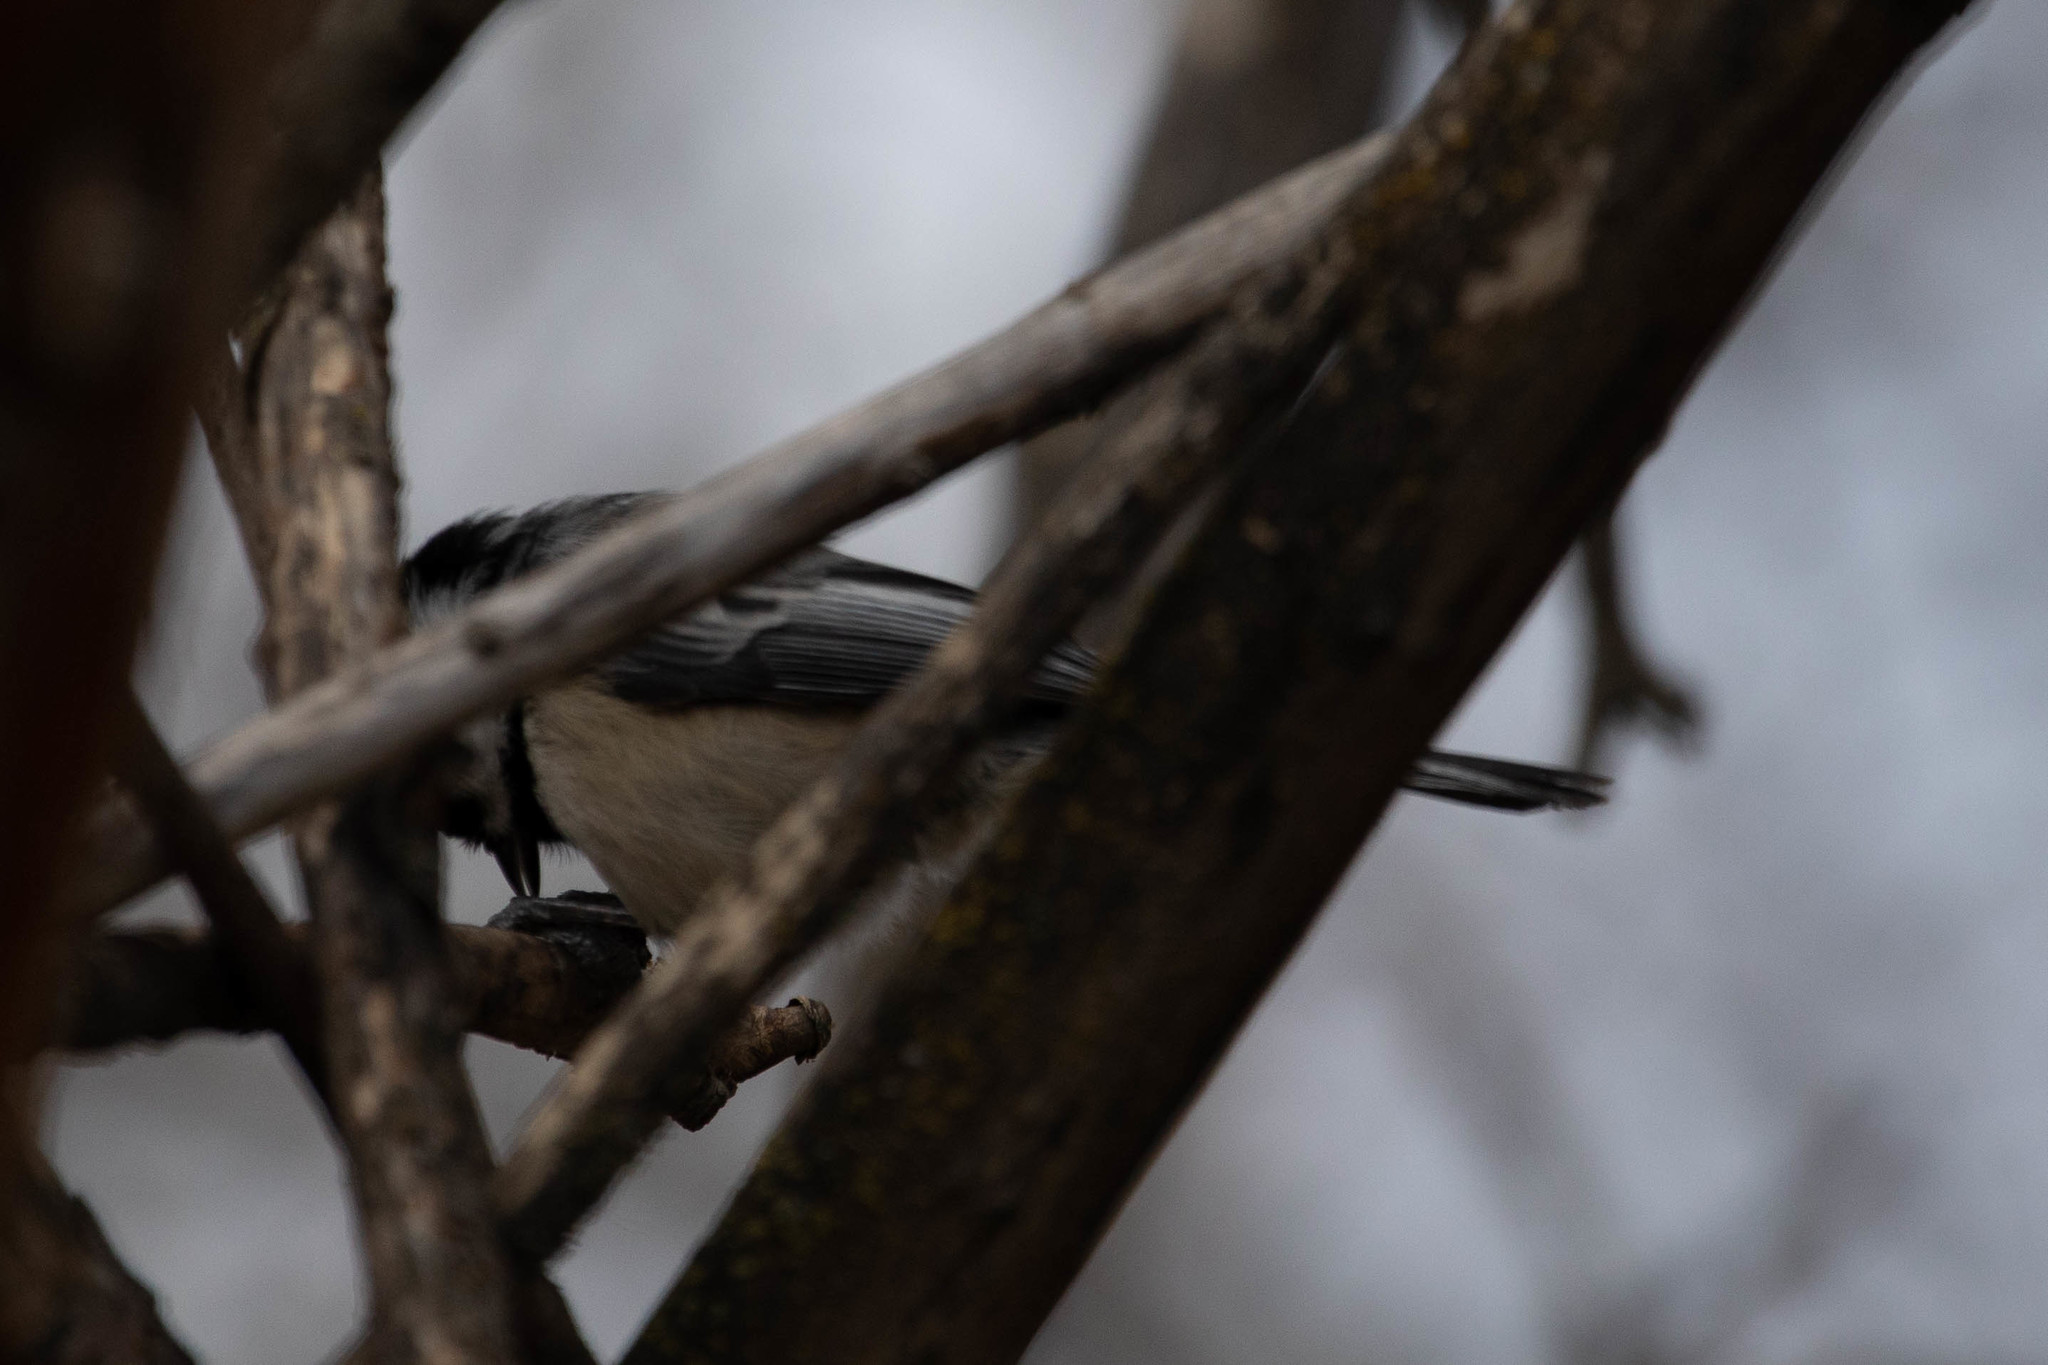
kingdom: Animalia
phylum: Chordata
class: Aves
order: Passeriformes
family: Paridae
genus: Poecile
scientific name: Poecile atricapillus
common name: Black-capped chickadee
